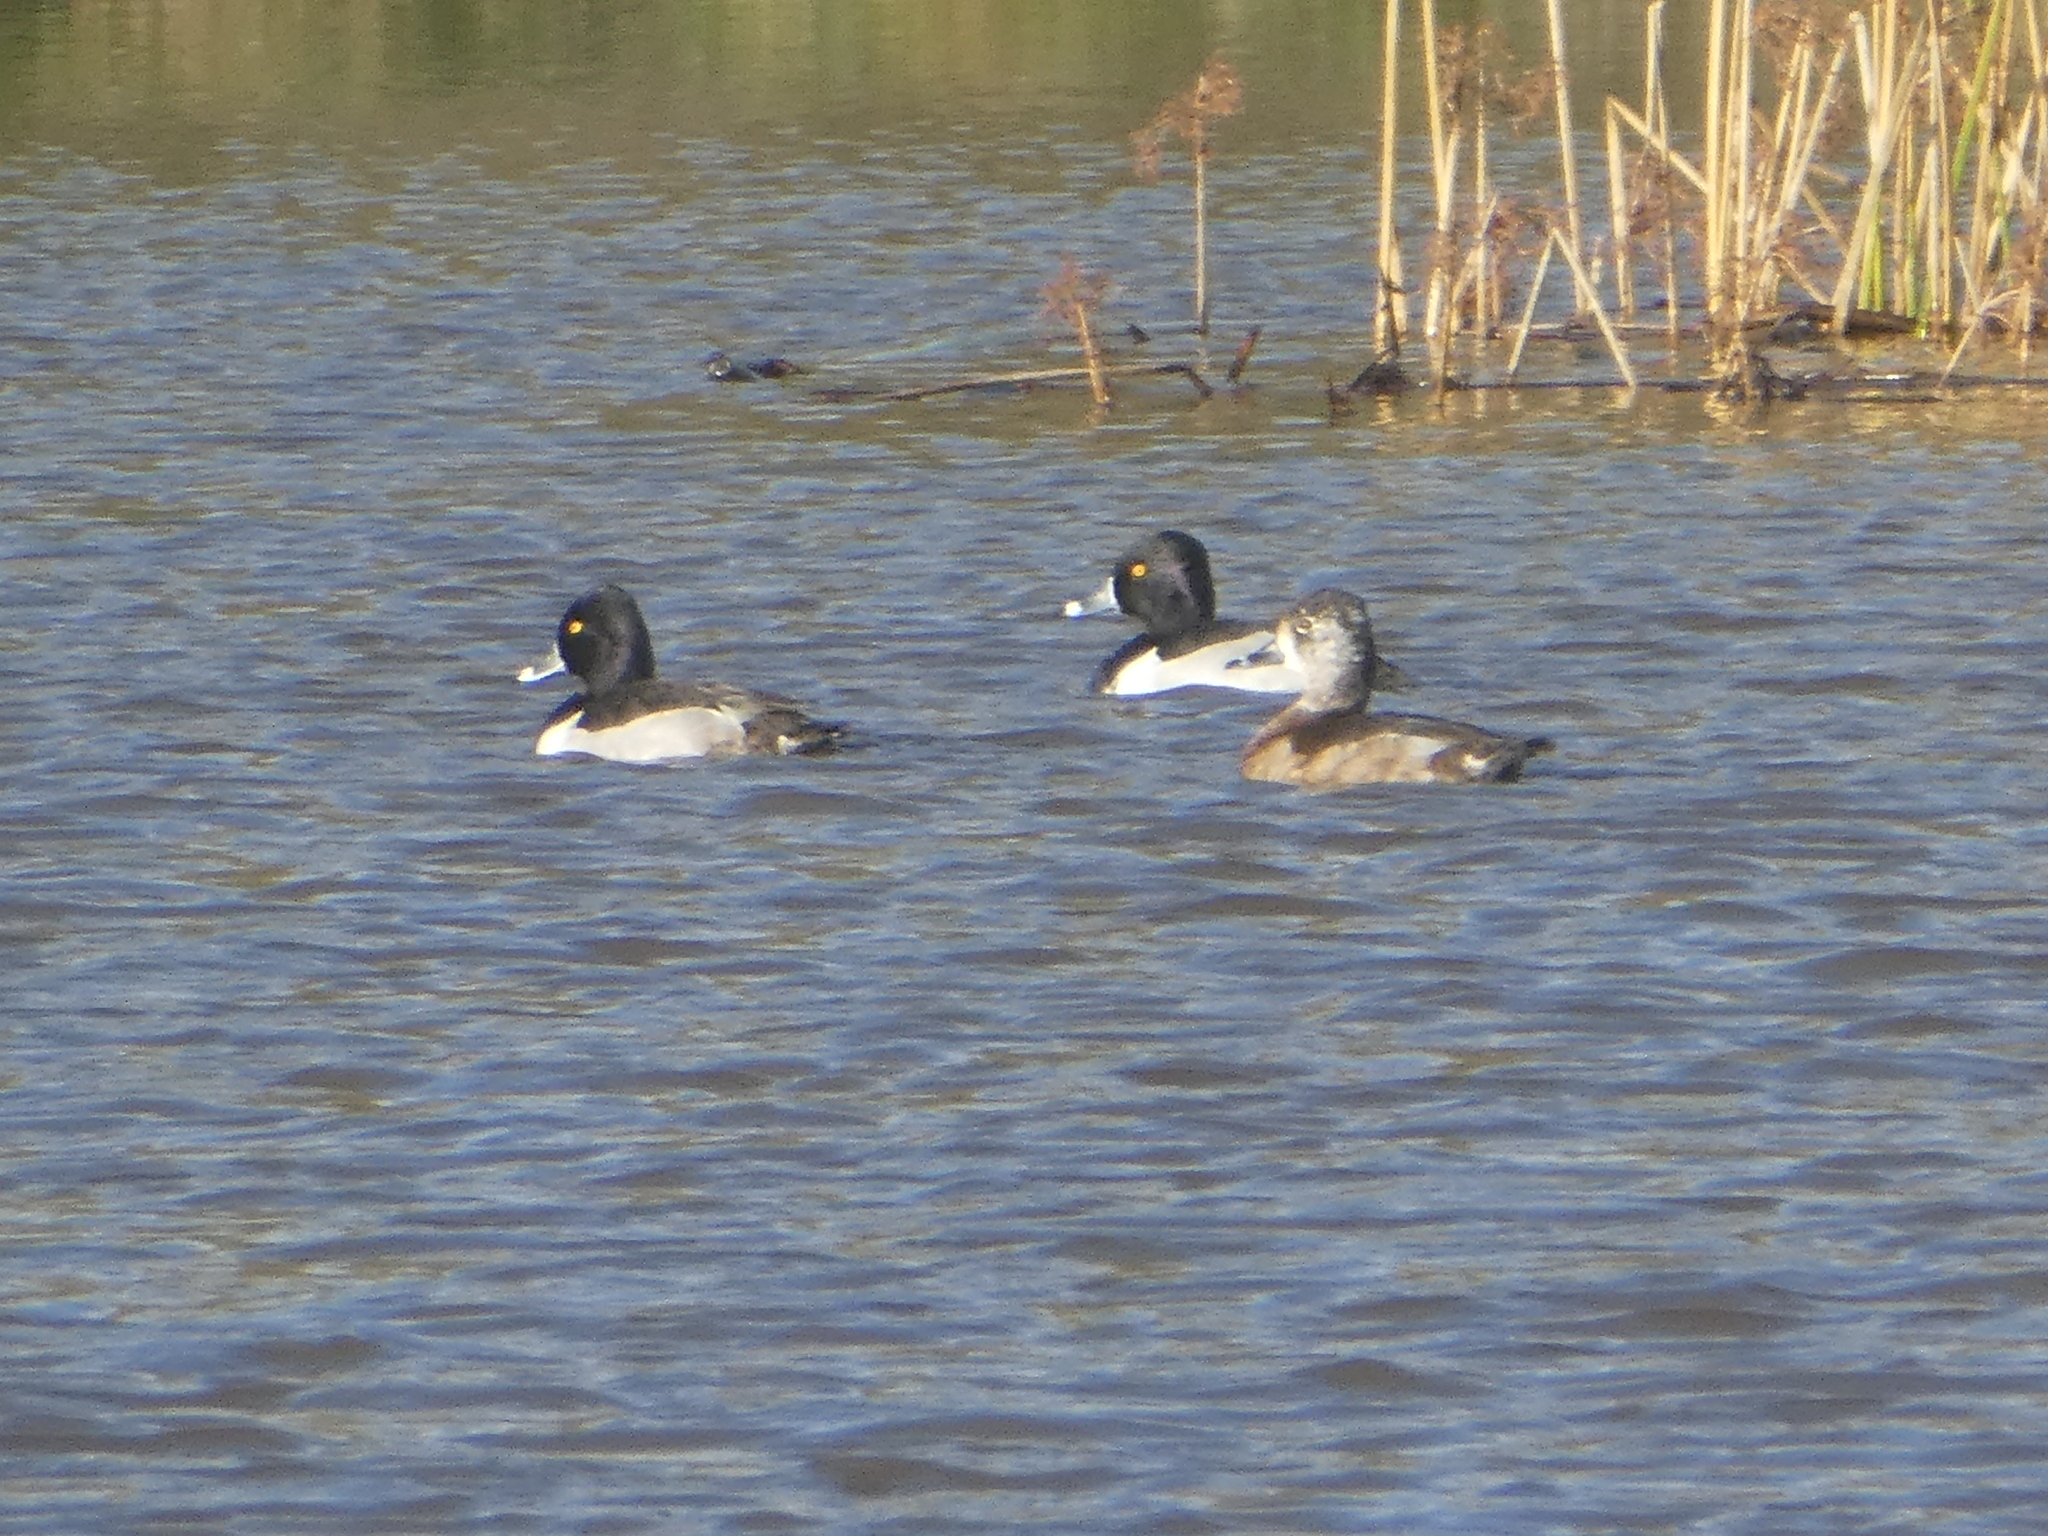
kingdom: Animalia
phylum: Chordata
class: Aves
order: Anseriformes
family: Anatidae
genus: Aythya
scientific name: Aythya collaris
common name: Ring-necked duck
